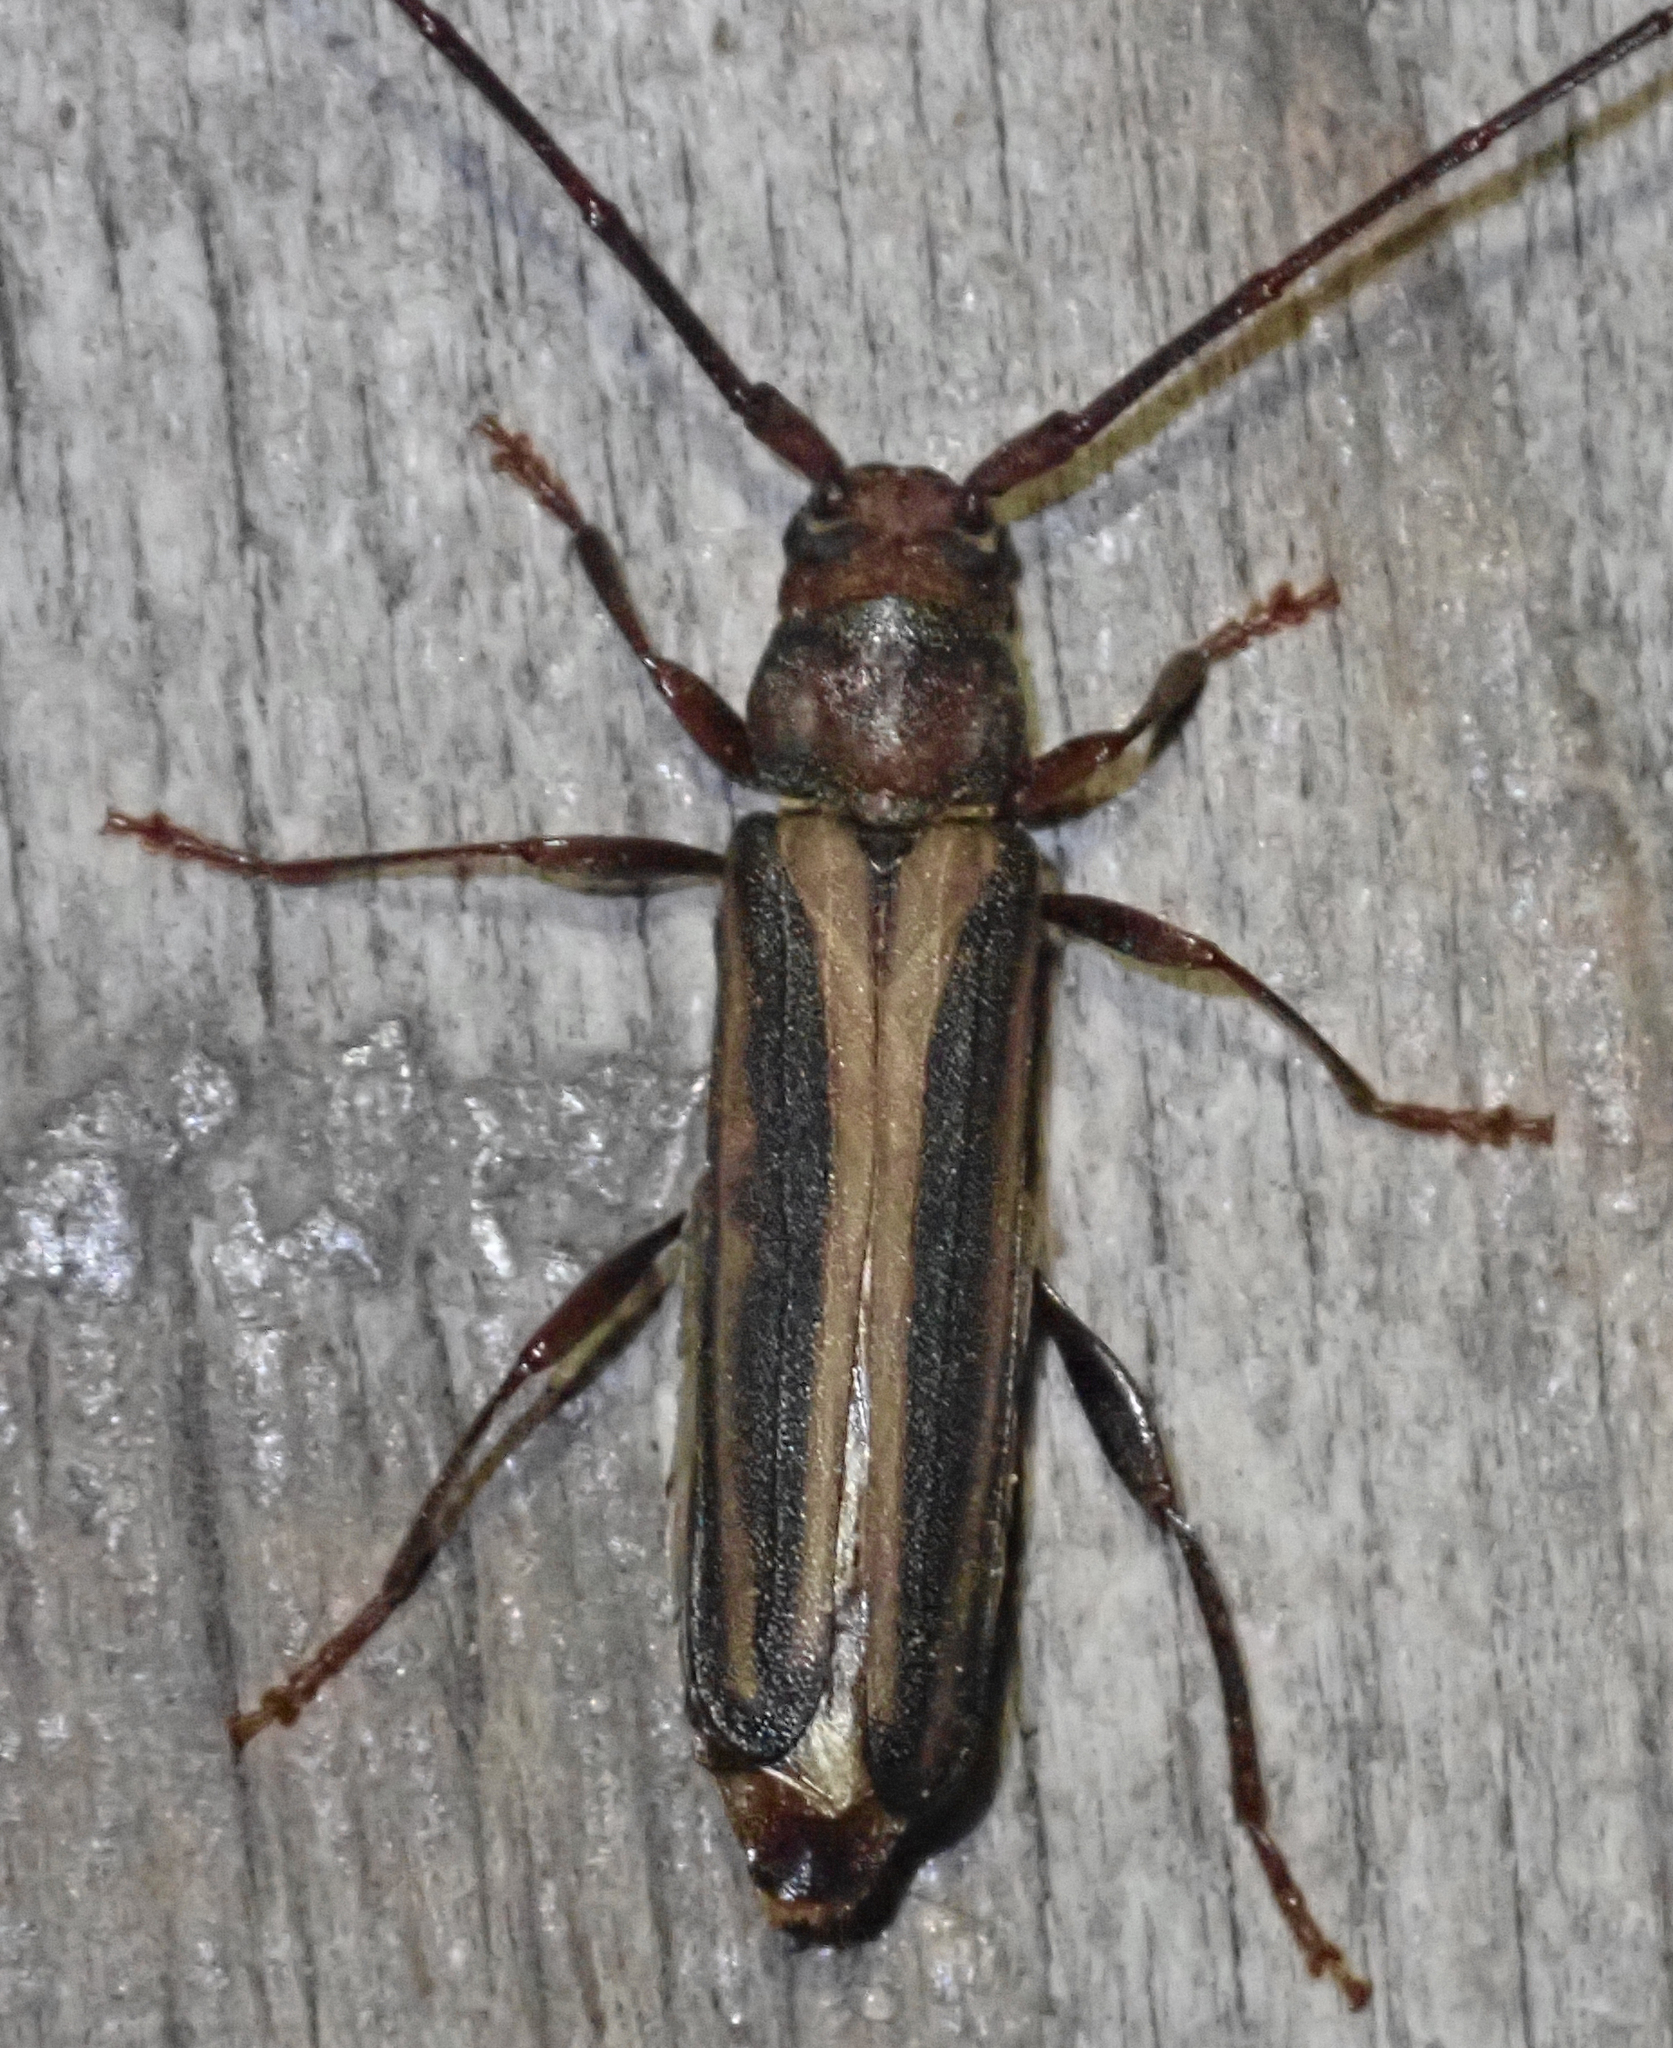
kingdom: Animalia
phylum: Arthropoda
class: Insecta
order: Coleoptera
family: Cerambycidae
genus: Xystrocera
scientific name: Xystrocera dispar
